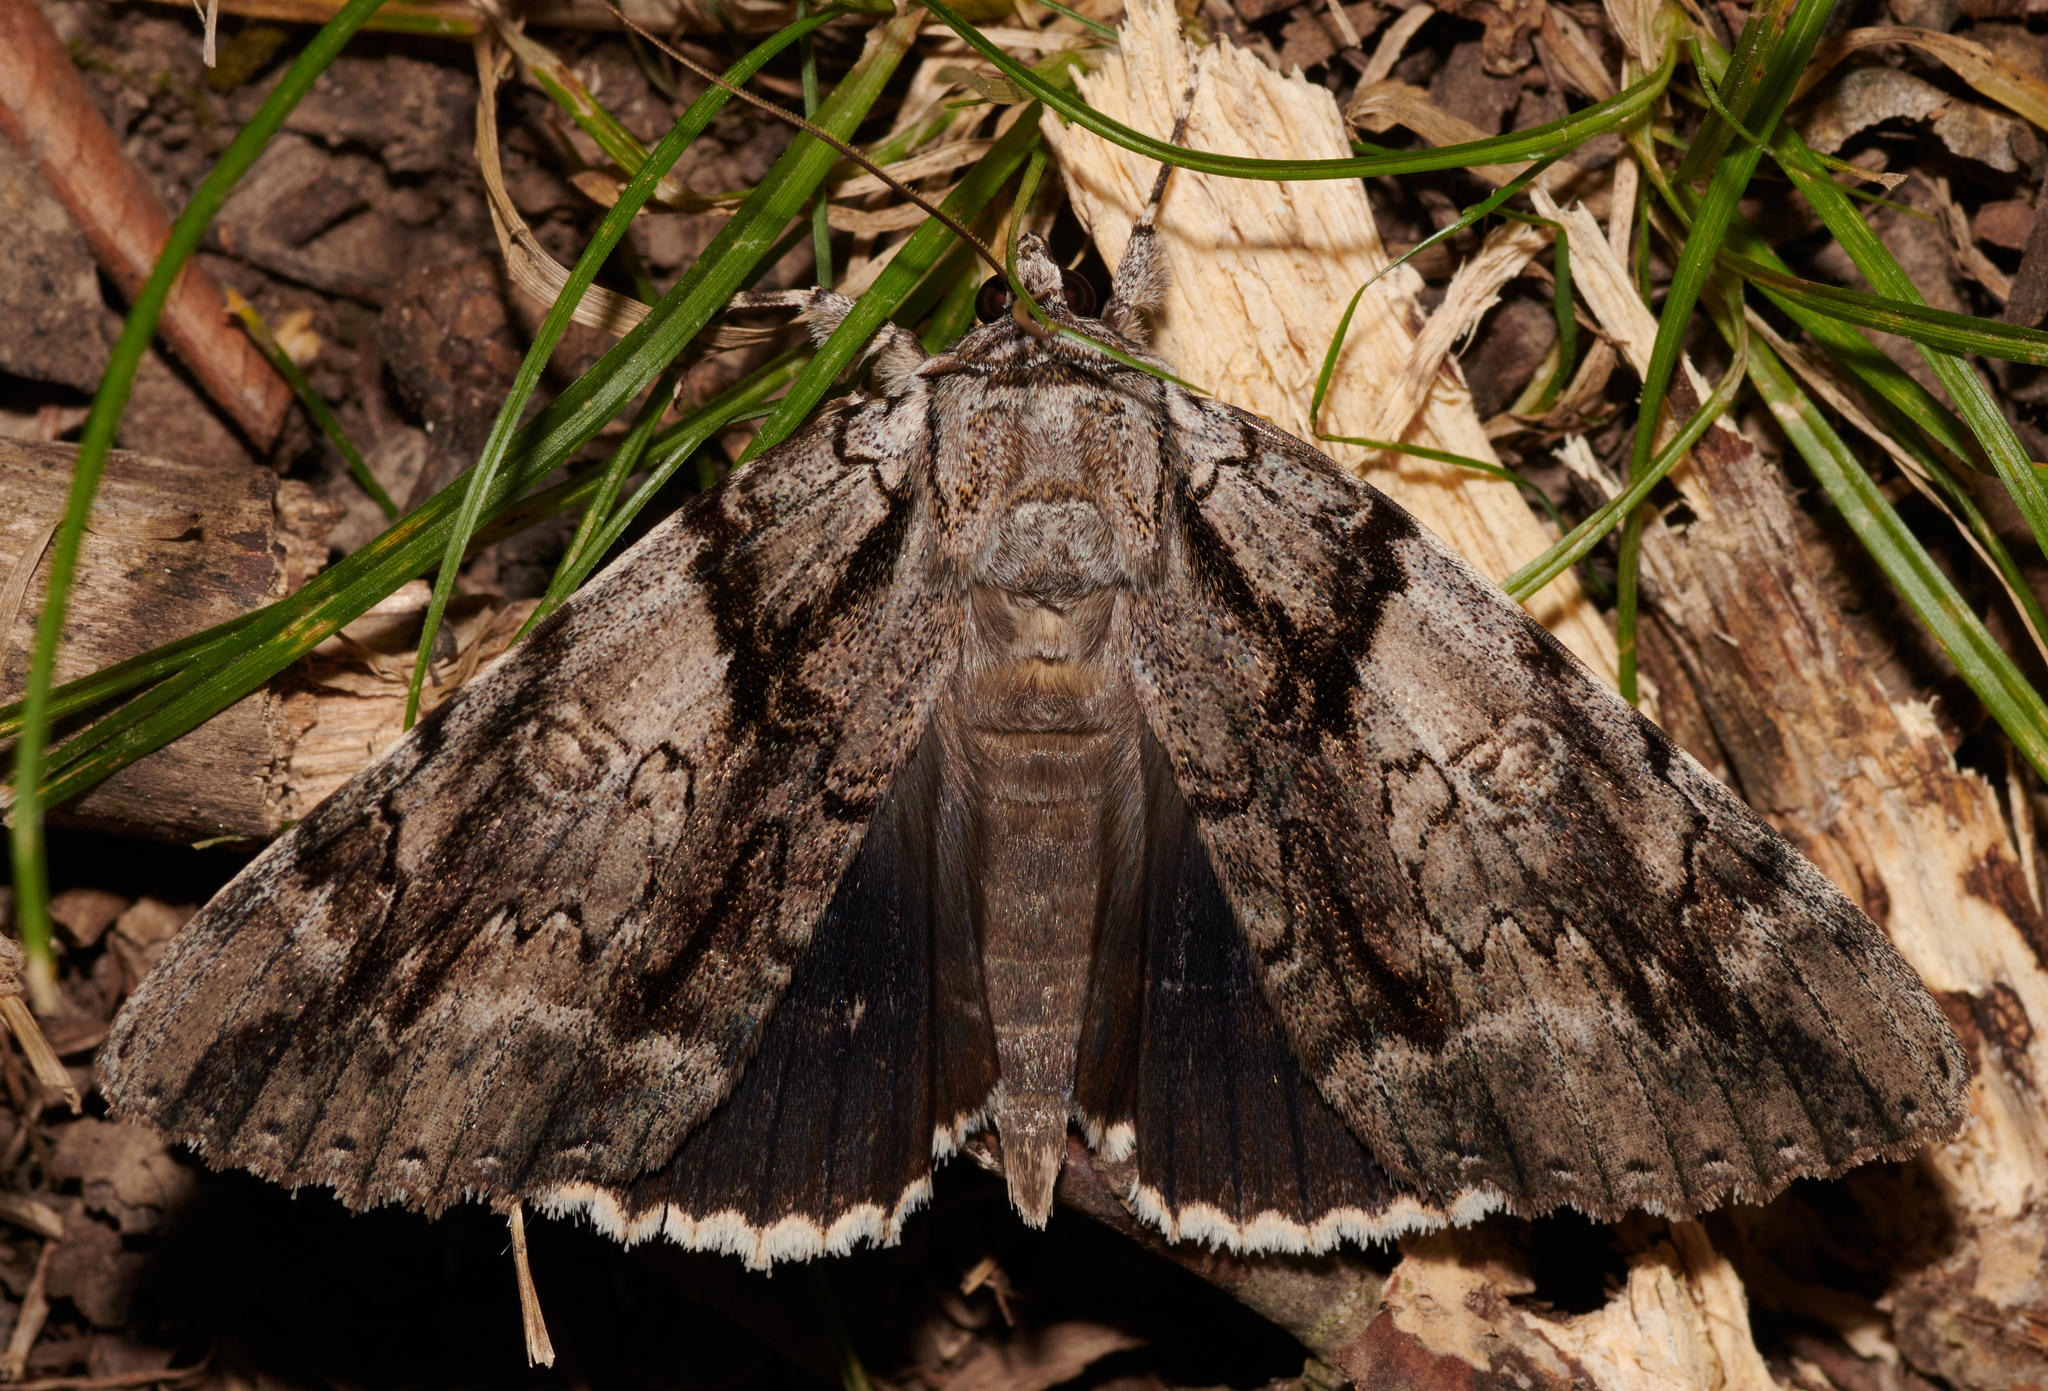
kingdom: Animalia
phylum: Arthropoda
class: Insecta
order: Lepidoptera
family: Erebidae
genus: Catocala
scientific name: Catocala vidua
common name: The widow
